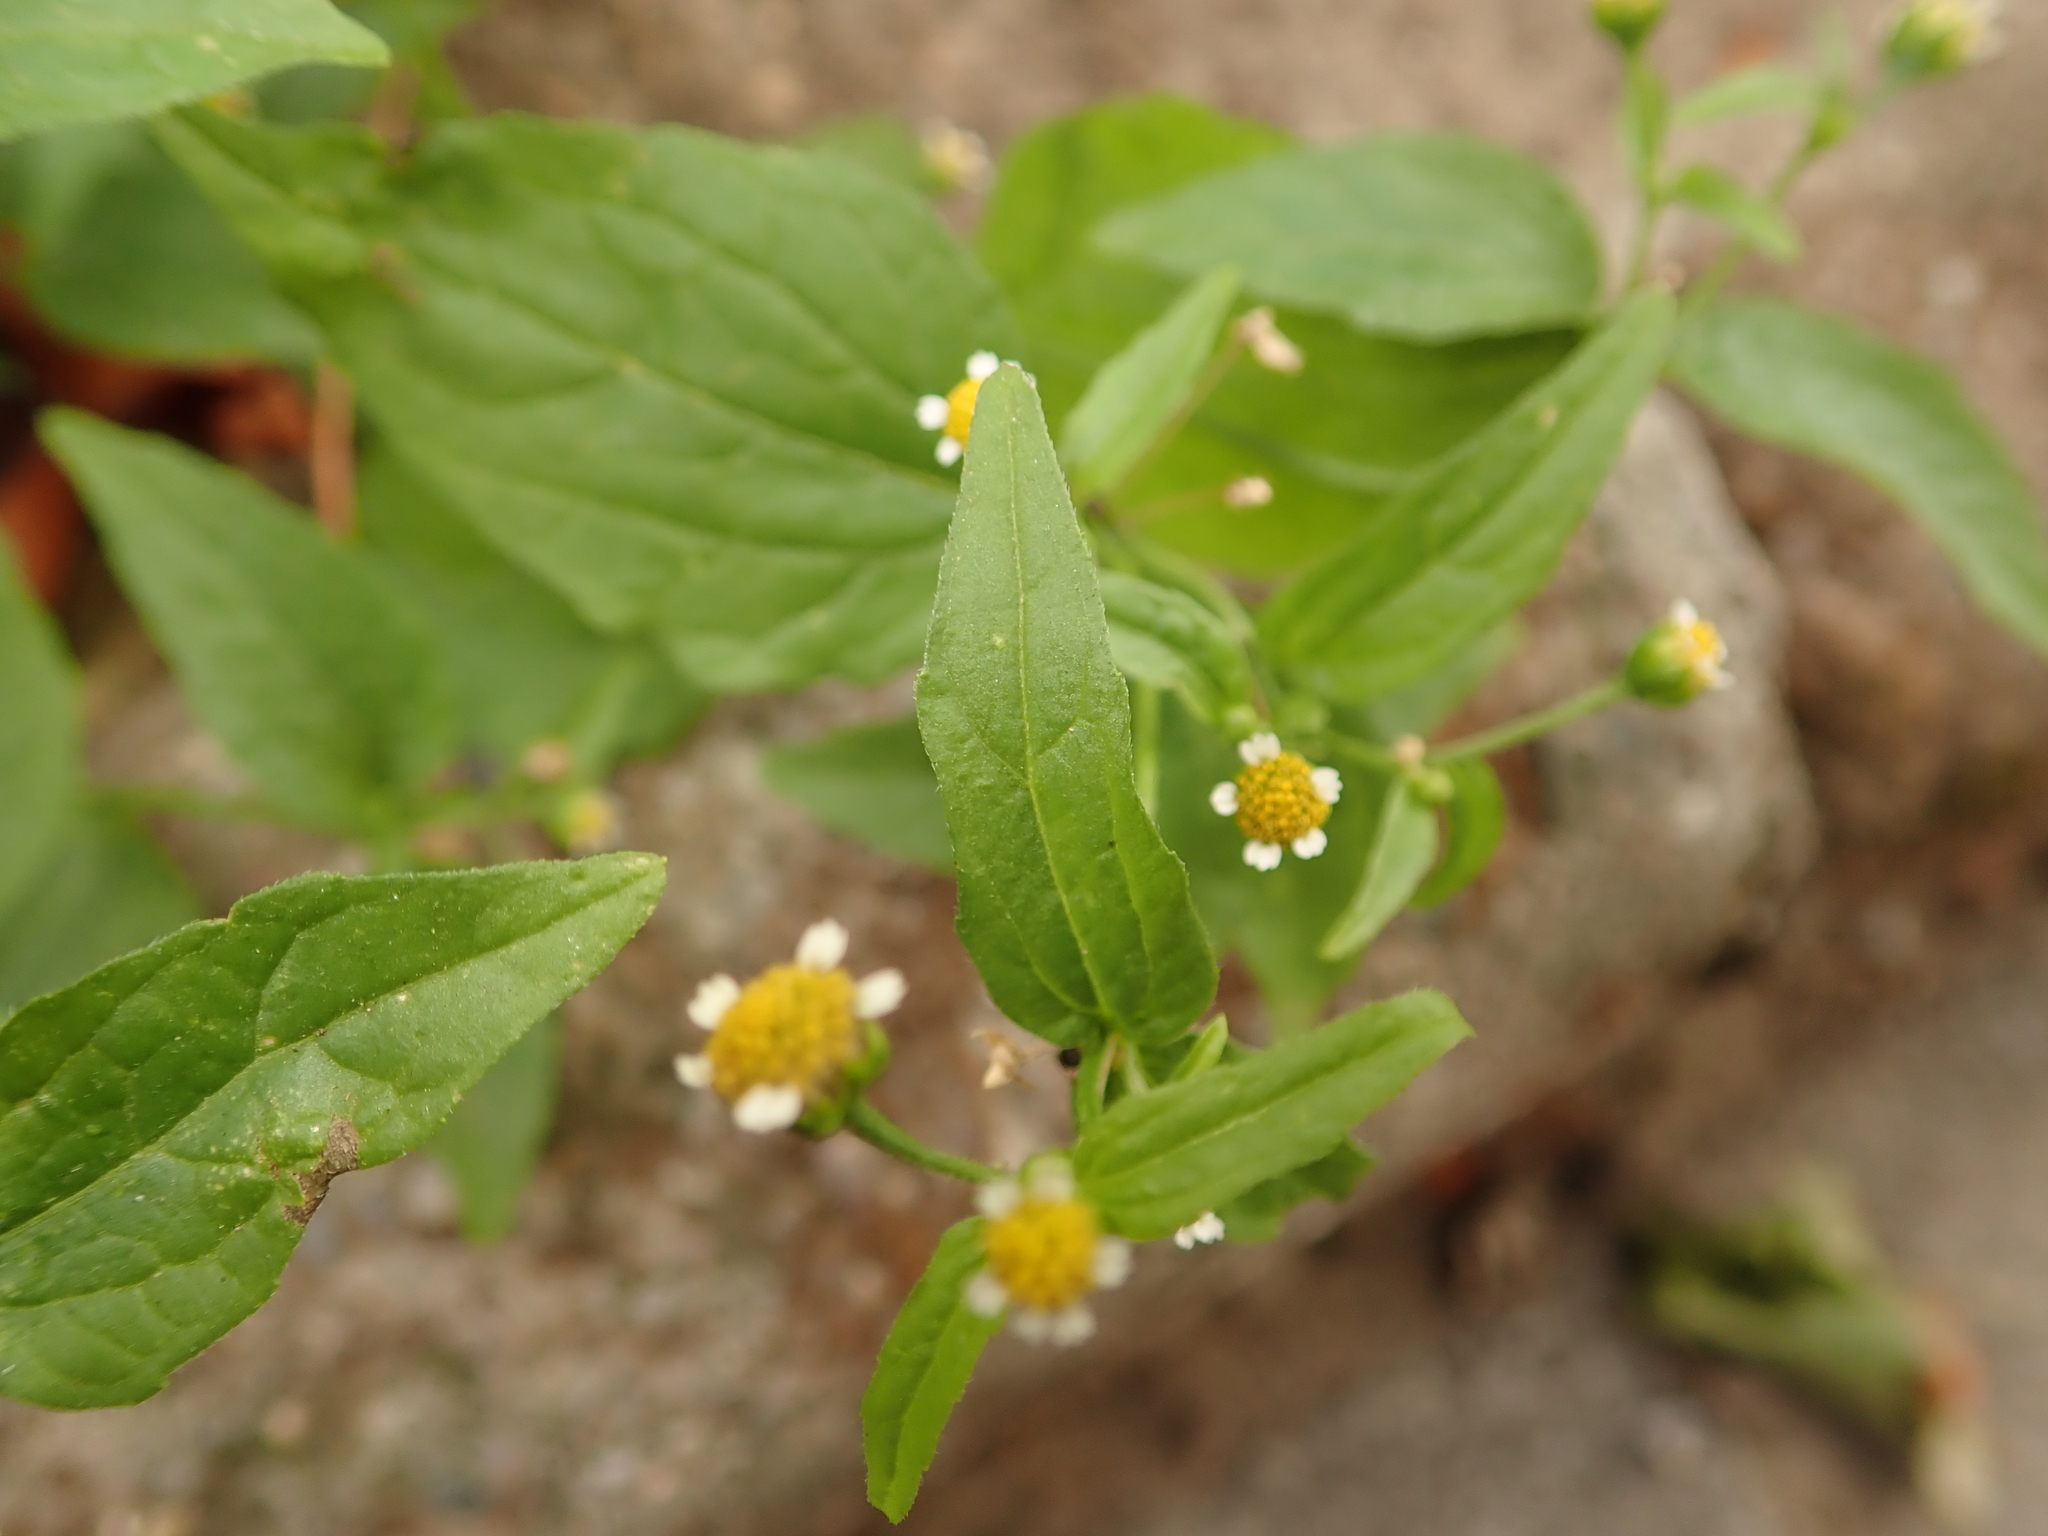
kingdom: Plantae
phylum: Tracheophyta
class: Magnoliopsida
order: Asterales
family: Asteraceae
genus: Galinsoga
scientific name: Galinsoga parviflora
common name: Gallant soldier
